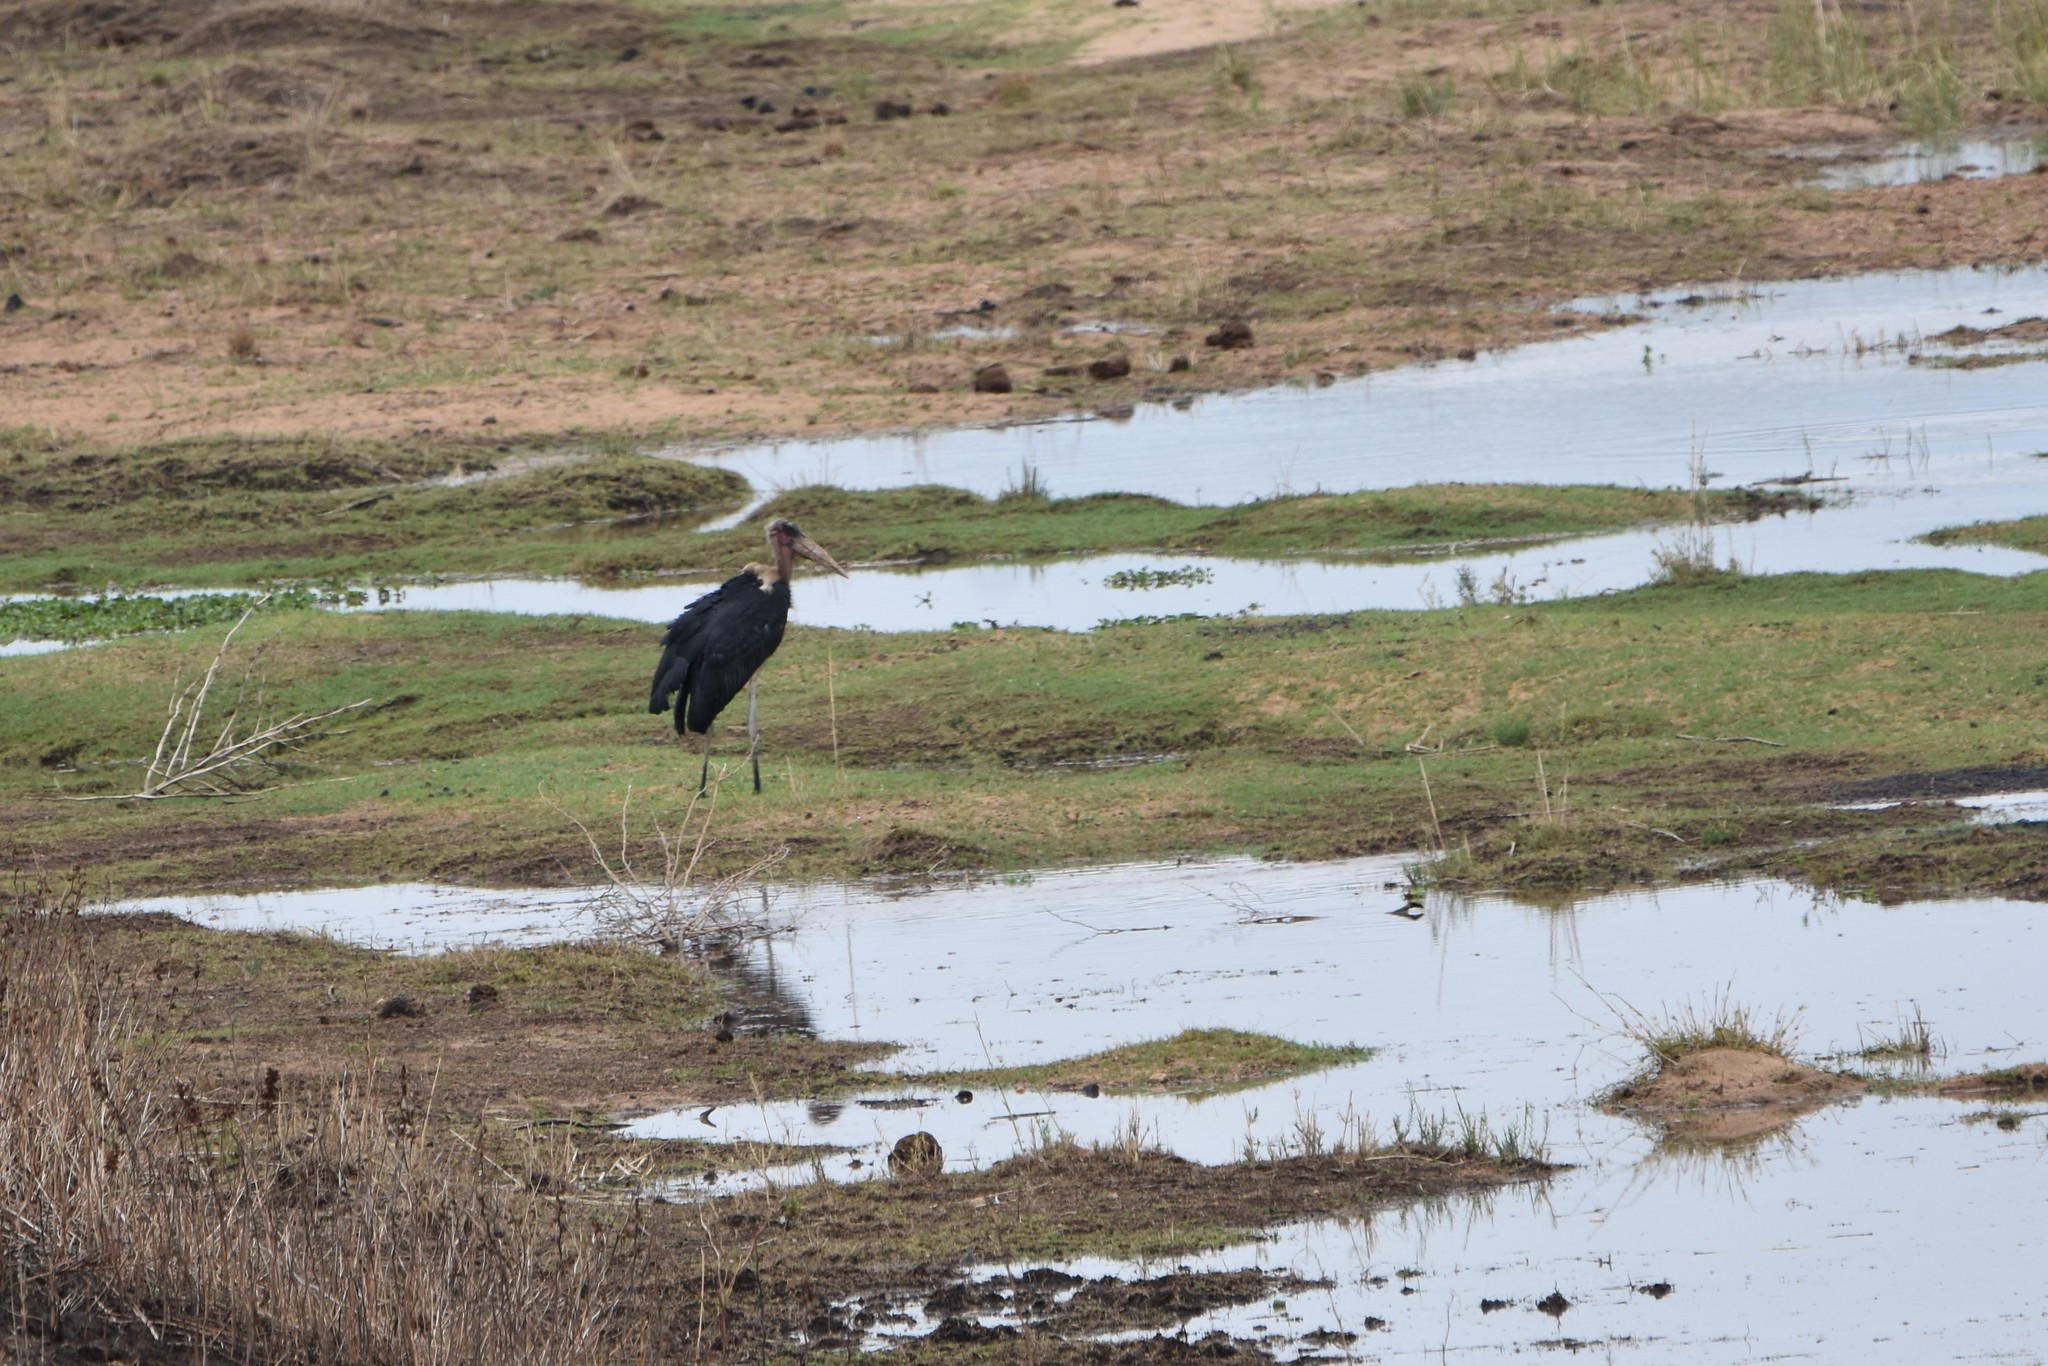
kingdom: Animalia
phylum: Chordata
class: Aves
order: Ciconiiformes
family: Ciconiidae
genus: Leptoptilos
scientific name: Leptoptilos crumenifer
